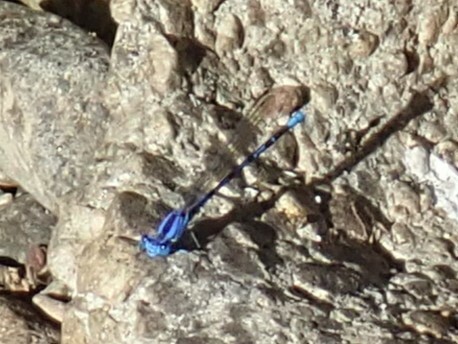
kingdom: Animalia
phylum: Arthropoda
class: Insecta
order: Odonata
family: Coenagrionidae
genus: Argia
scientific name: Argia vivida
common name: Vivid dancer
